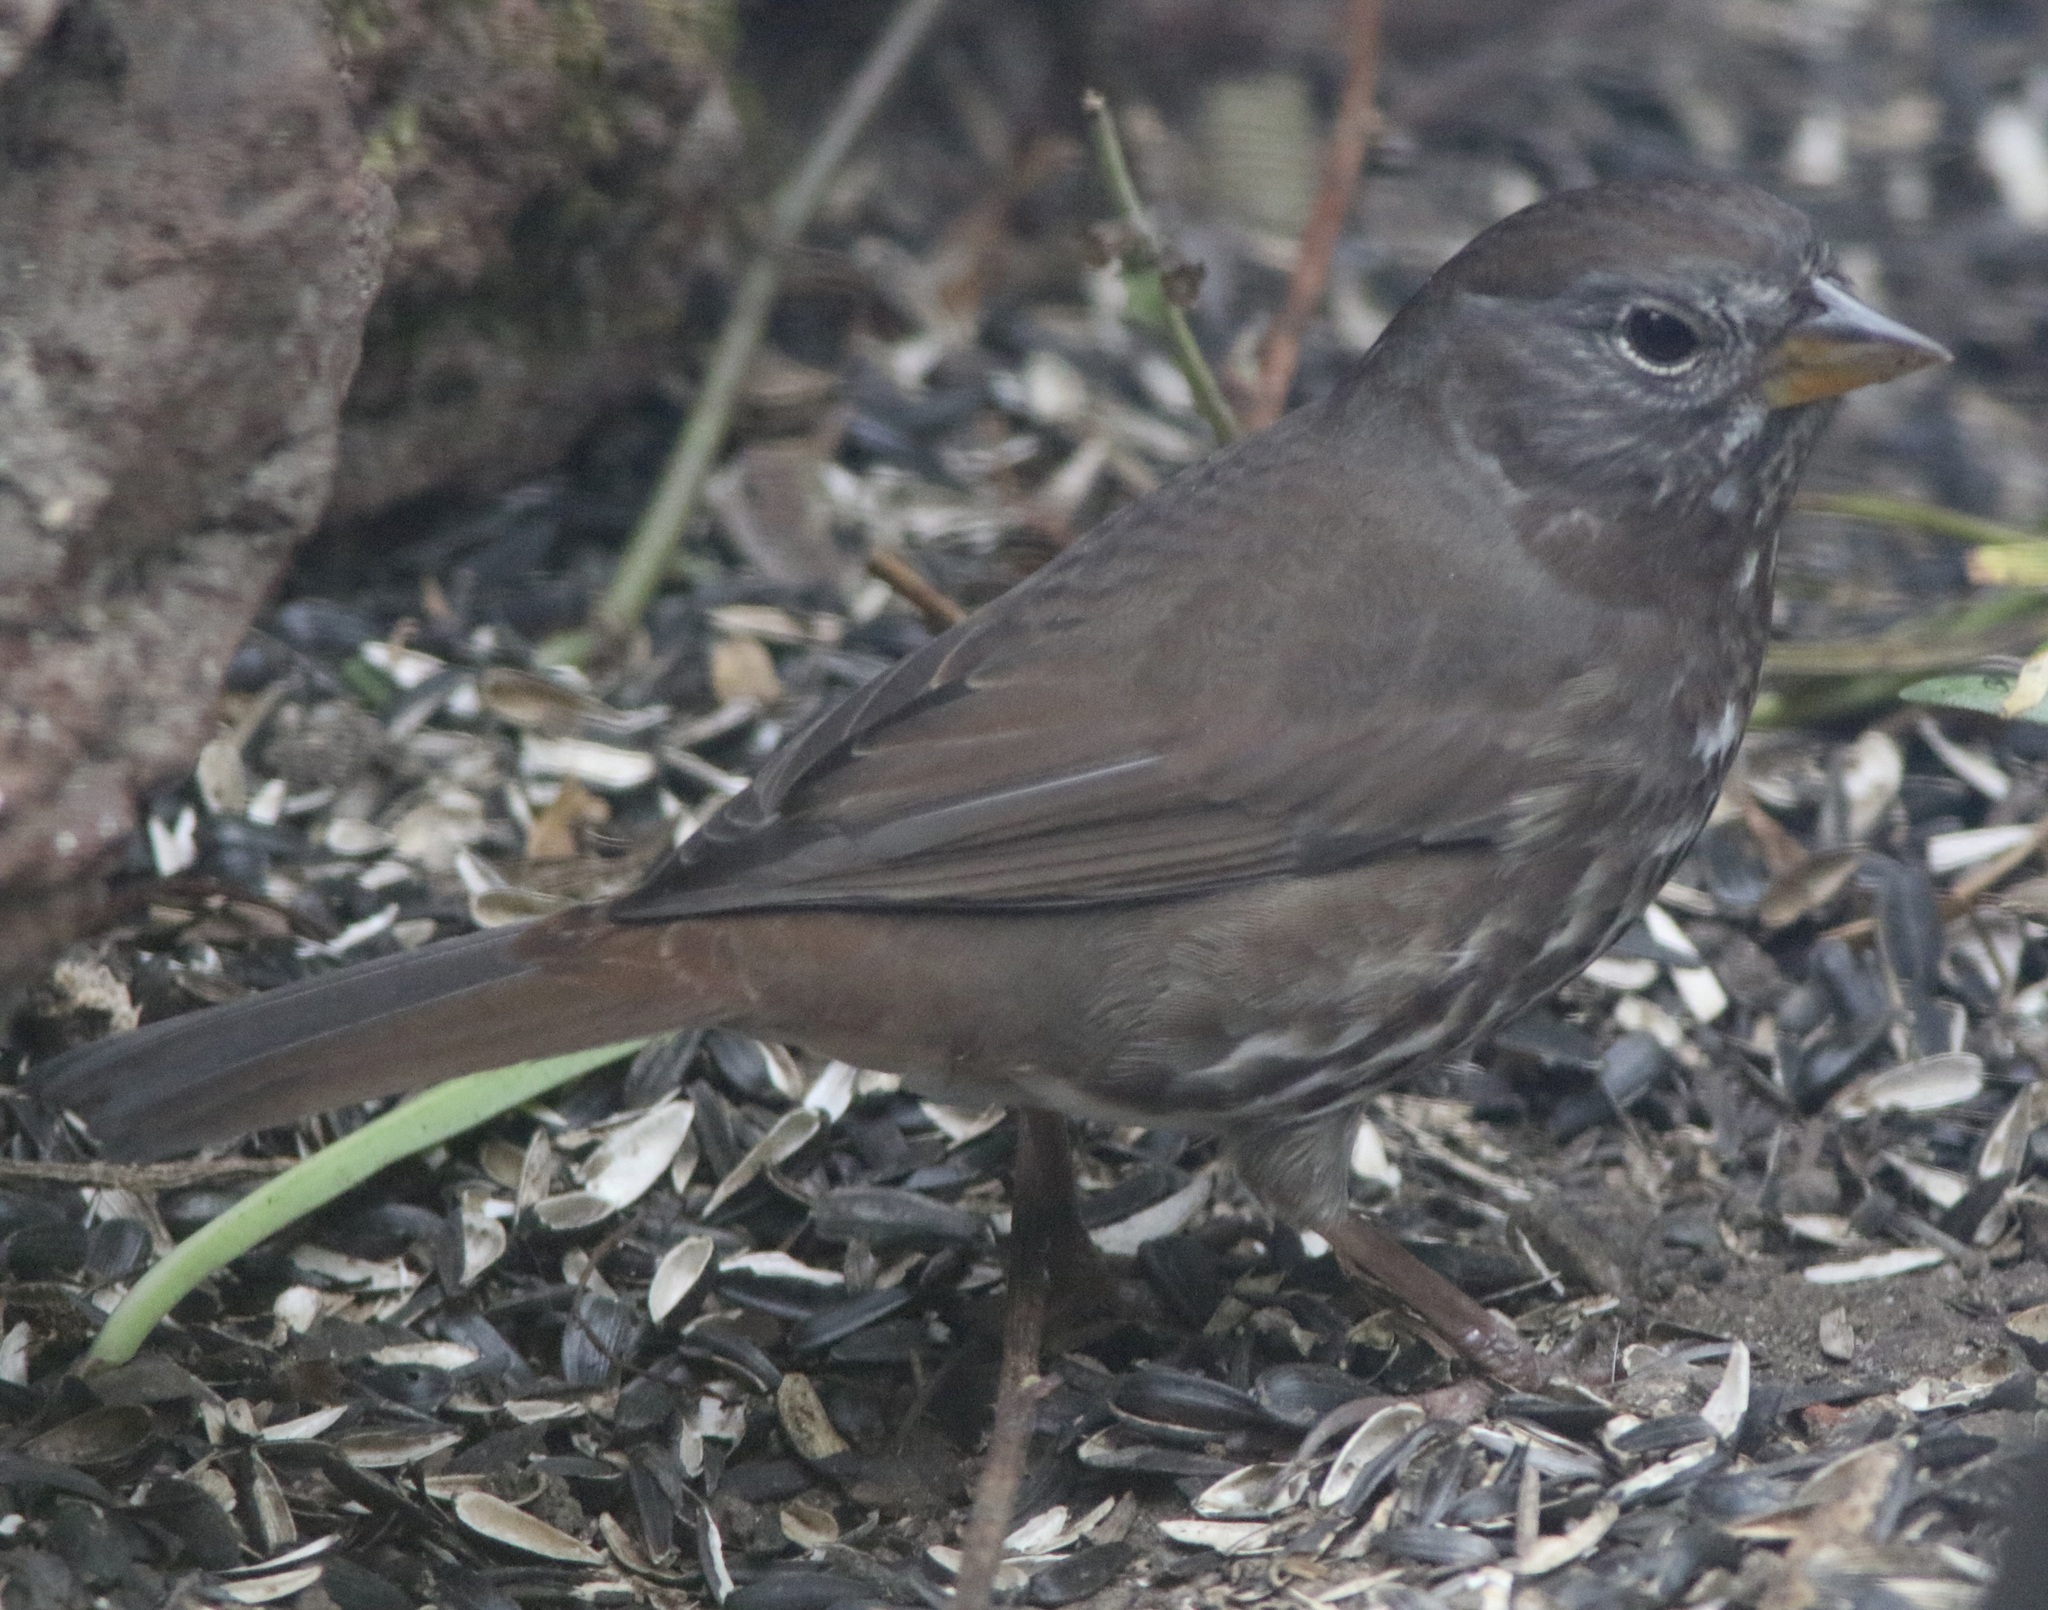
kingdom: Animalia
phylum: Chordata
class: Aves
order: Passeriformes
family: Passerellidae
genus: Passerella
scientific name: Passerella iliaca
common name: Fox sparrow
